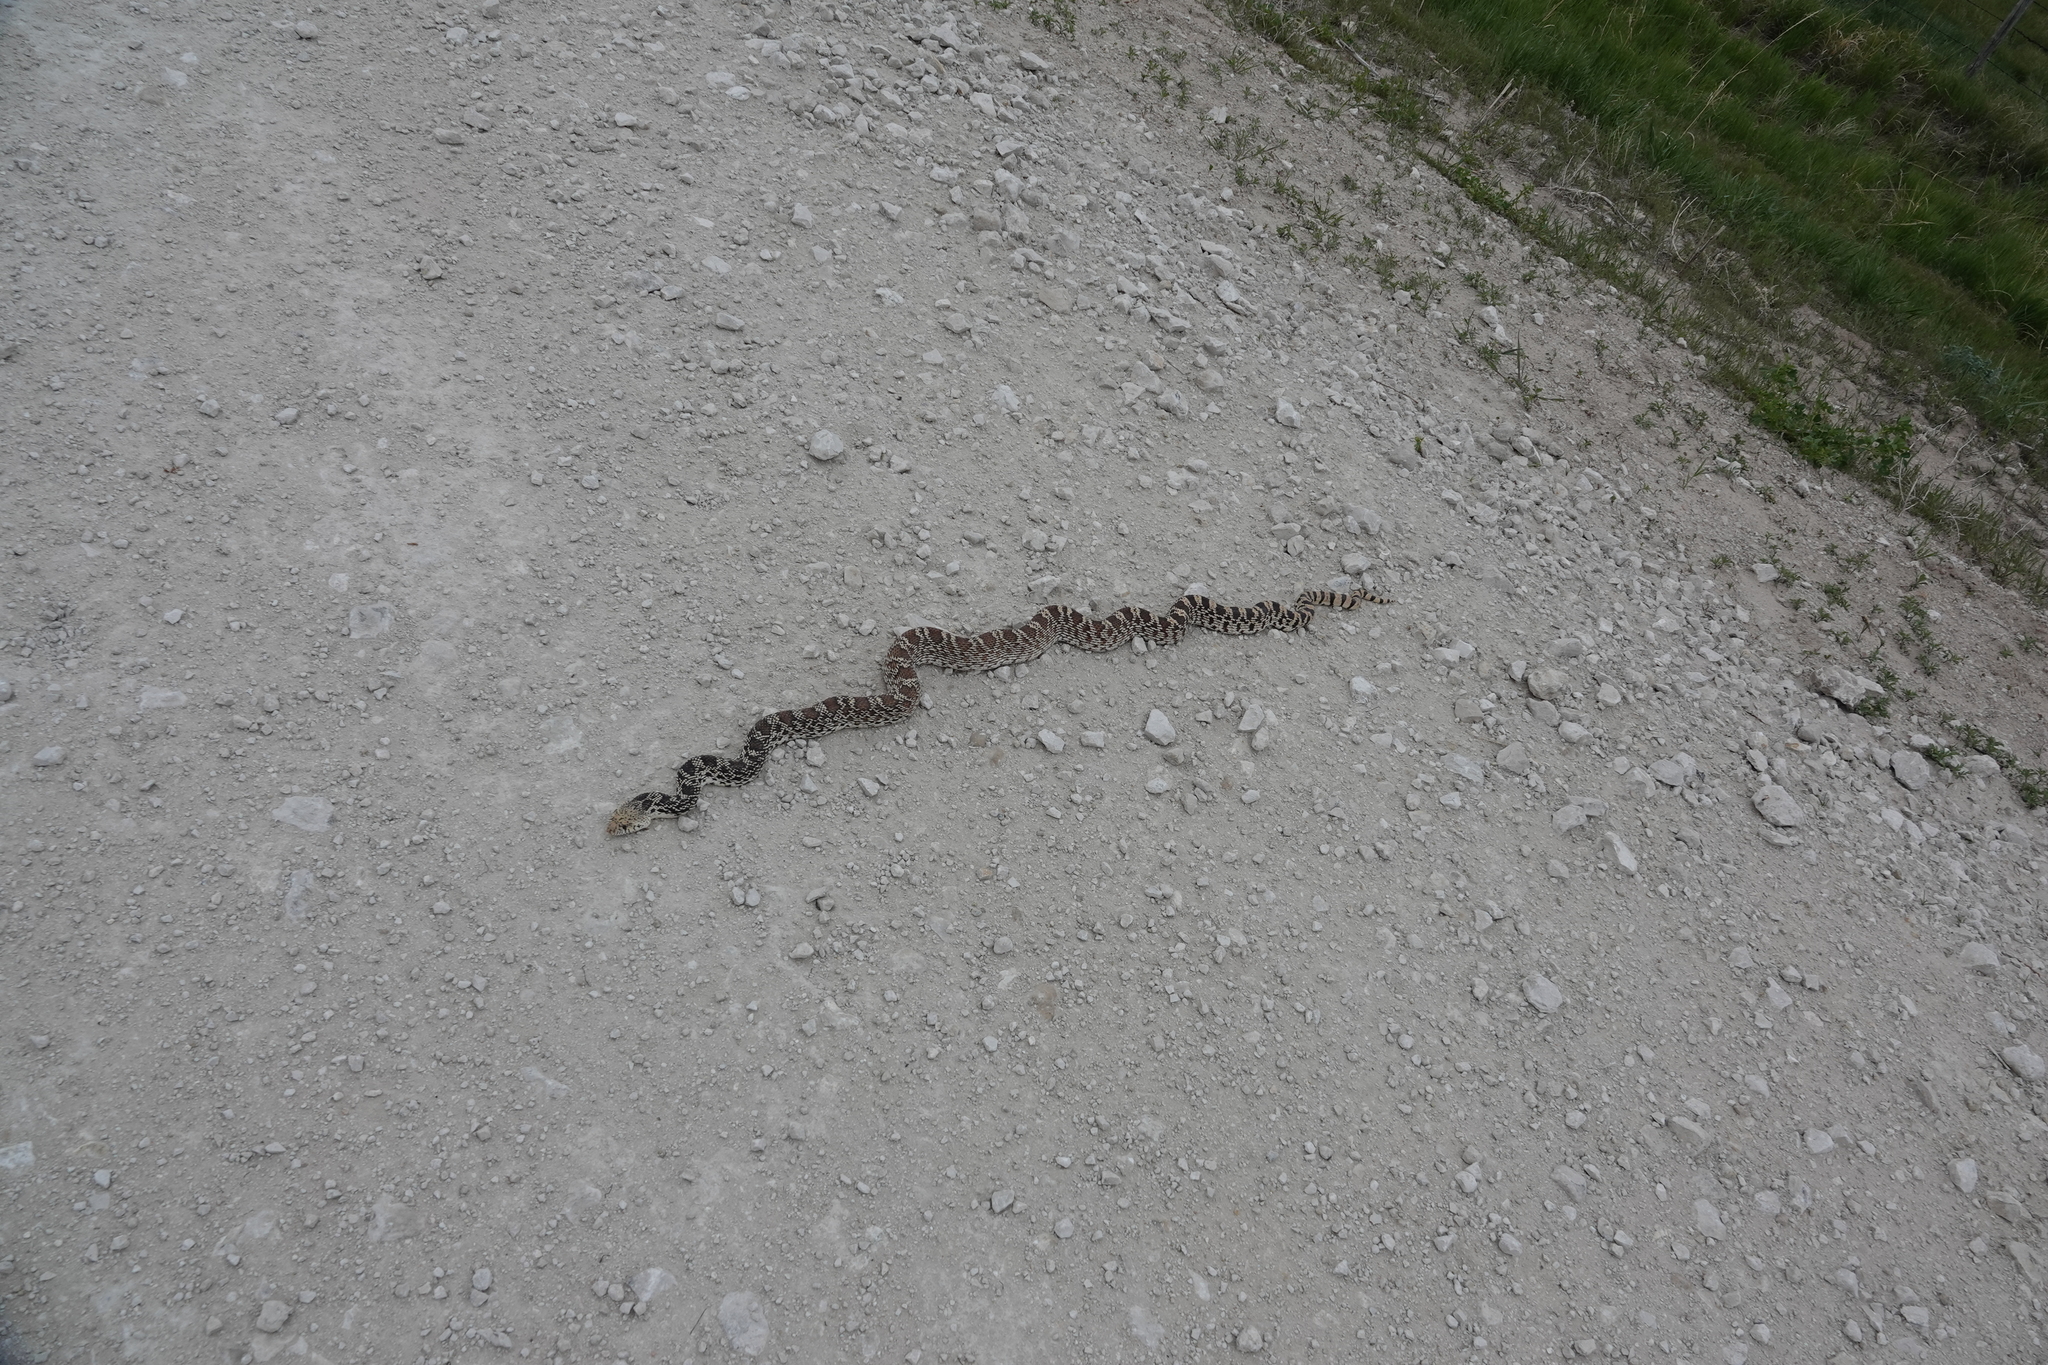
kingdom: Animalia
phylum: Chordata
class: Squamata
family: Colubridae
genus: Pituophis
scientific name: Pituophis catenifer
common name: Gopher snake
